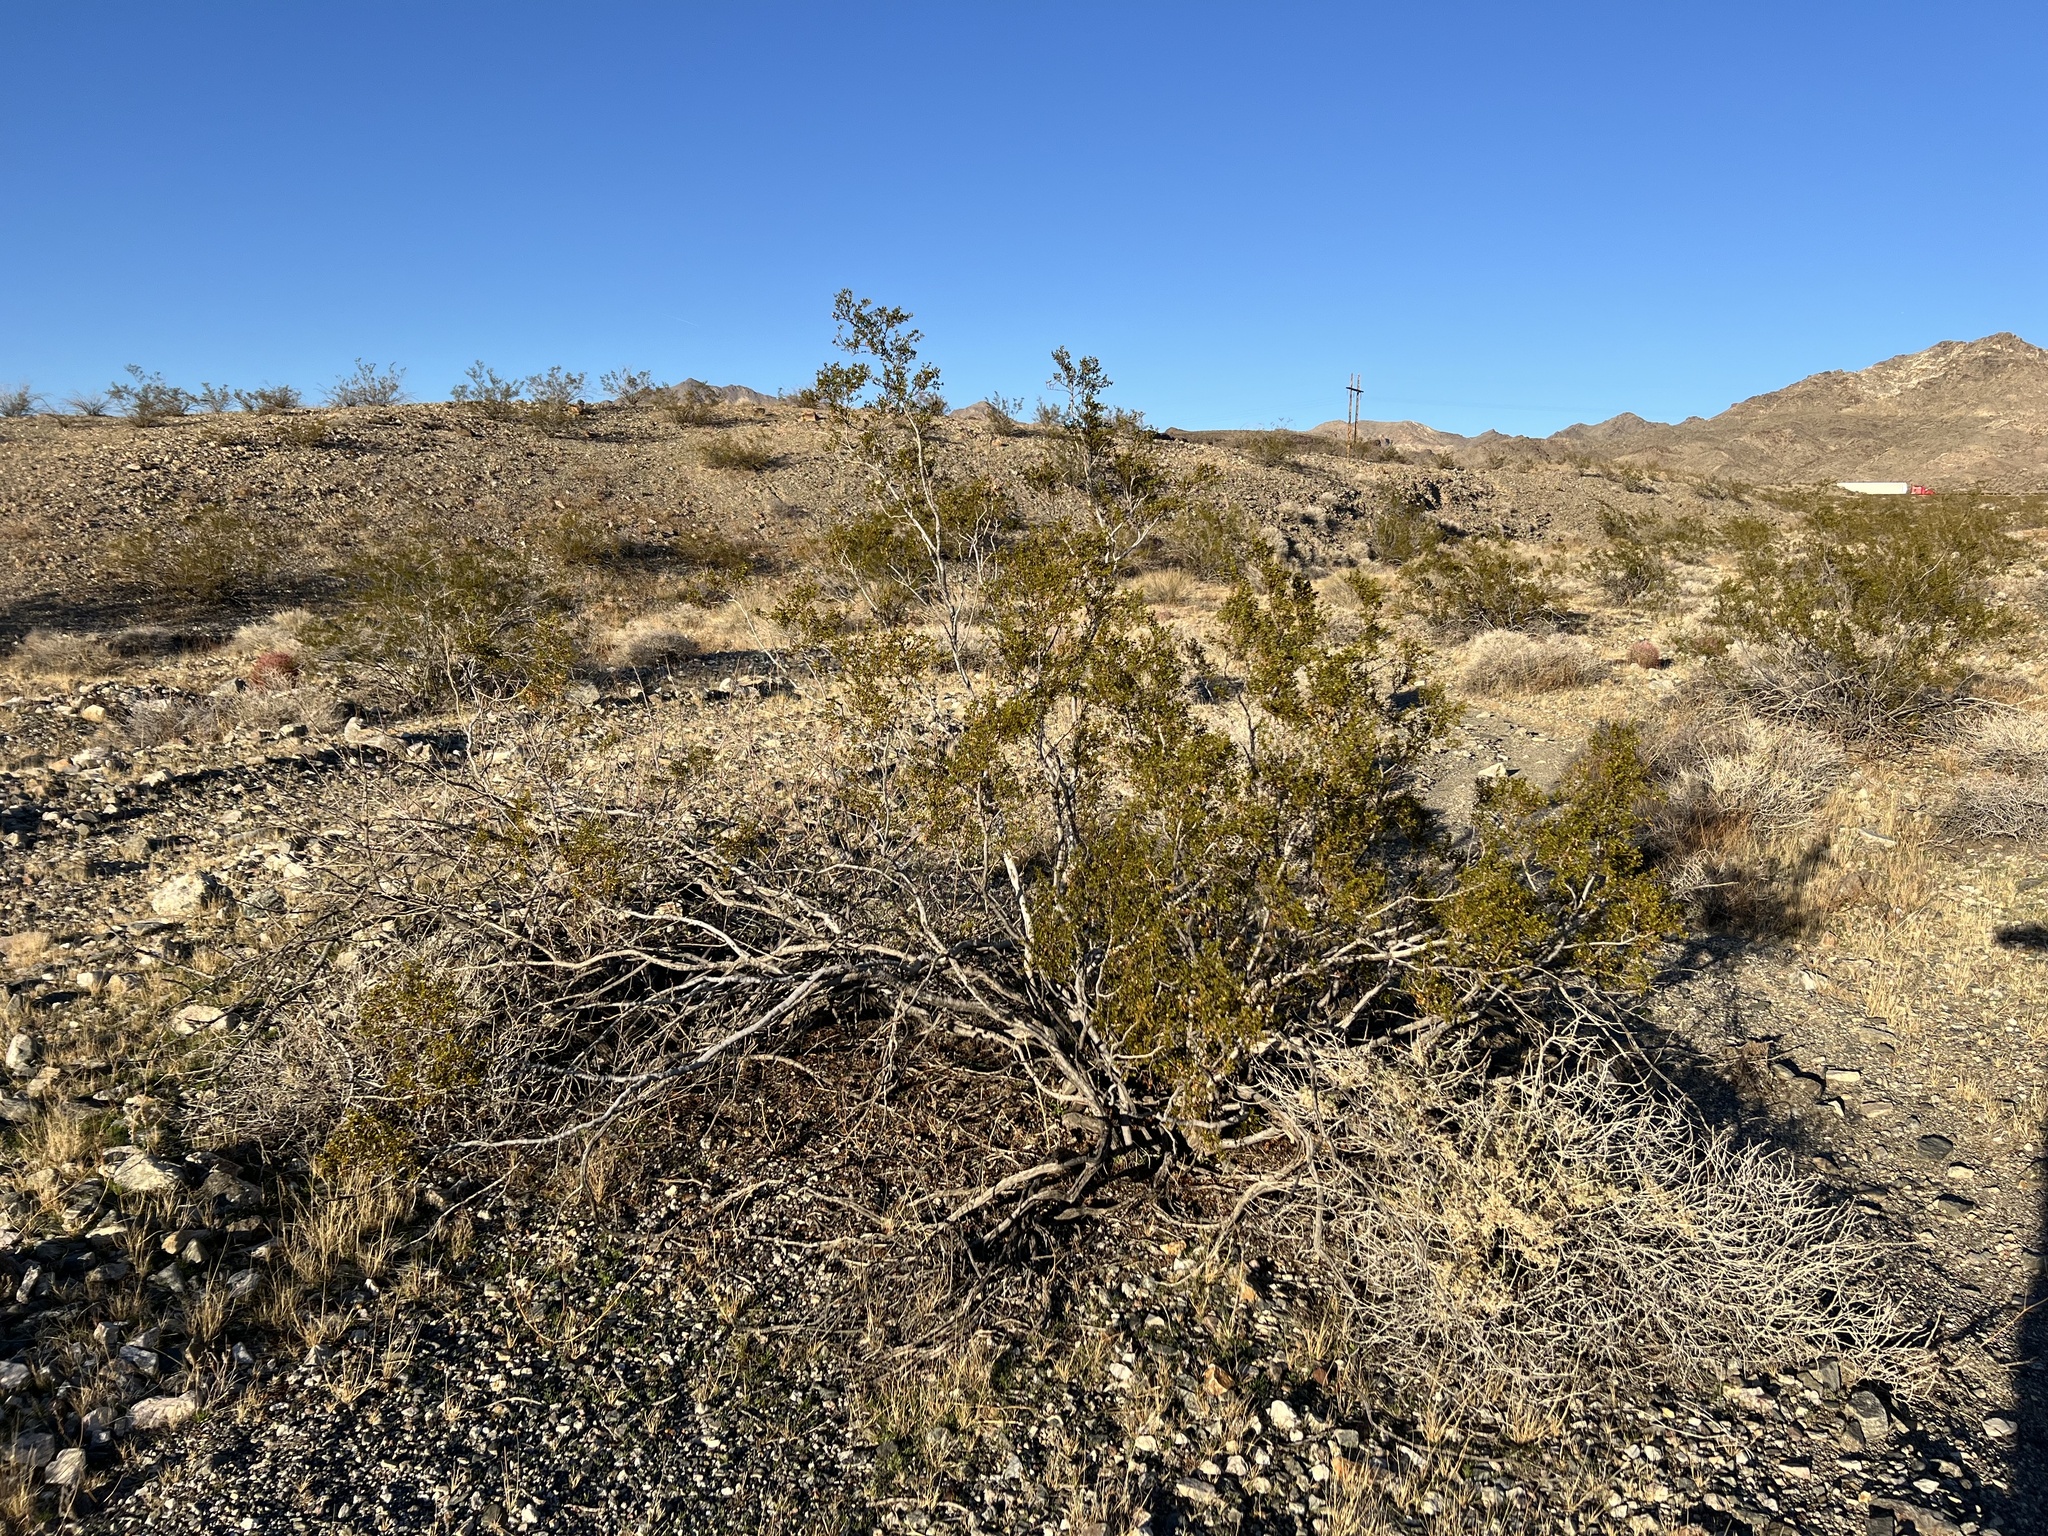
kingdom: Plantae
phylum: Tracheophyta
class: Magnoliopsida
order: Zygophyllales
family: Zygophyllaceae
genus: Larrea
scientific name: Larrea tridentata
